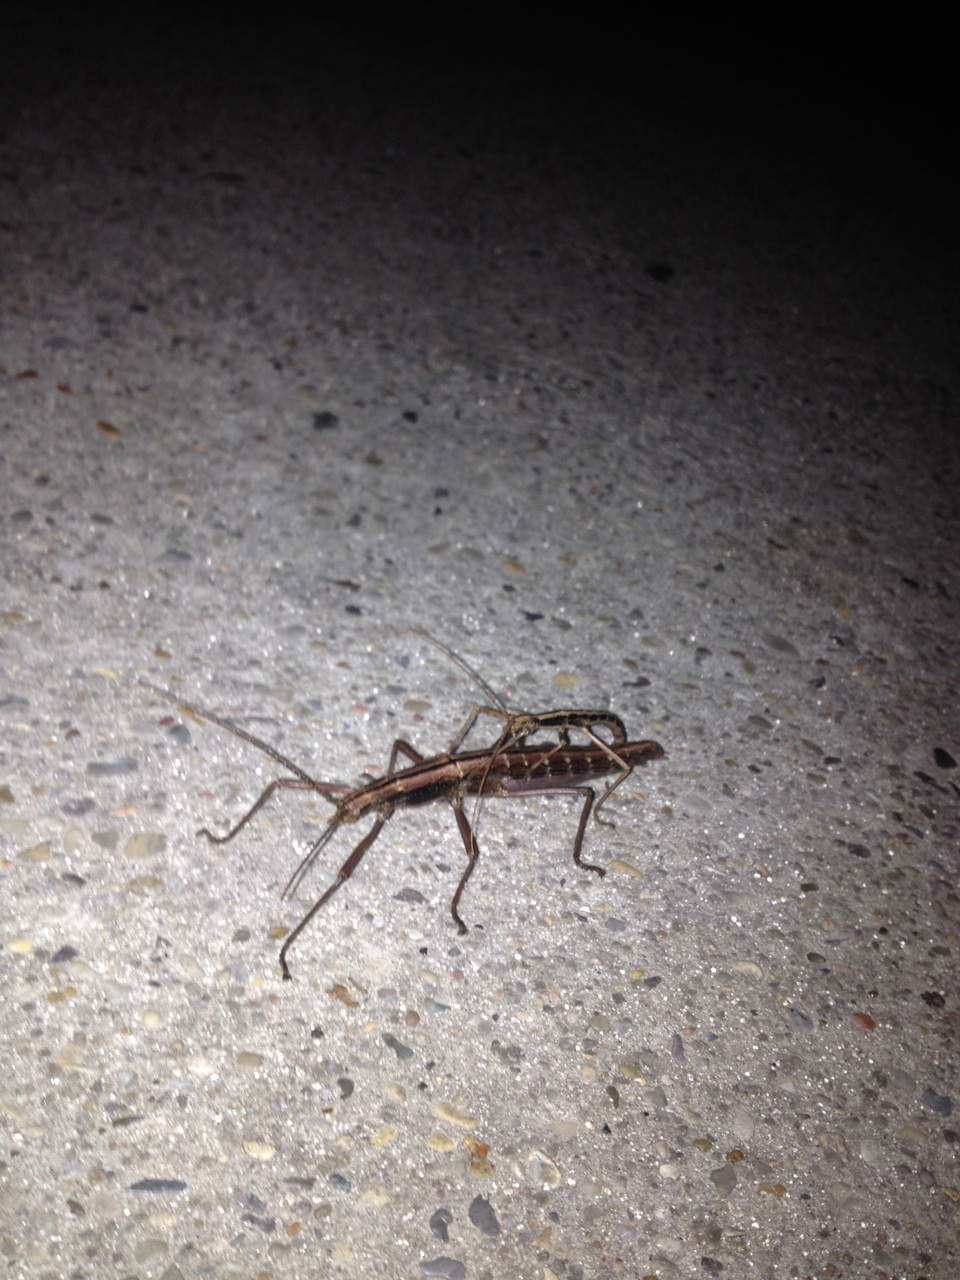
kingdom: Animalia
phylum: Arthropoda
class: Insecta
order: Phasmida
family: Pseudophasmatidae
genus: Anisomorpha
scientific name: Anisomorpha buprestoides
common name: Florida stick insect
